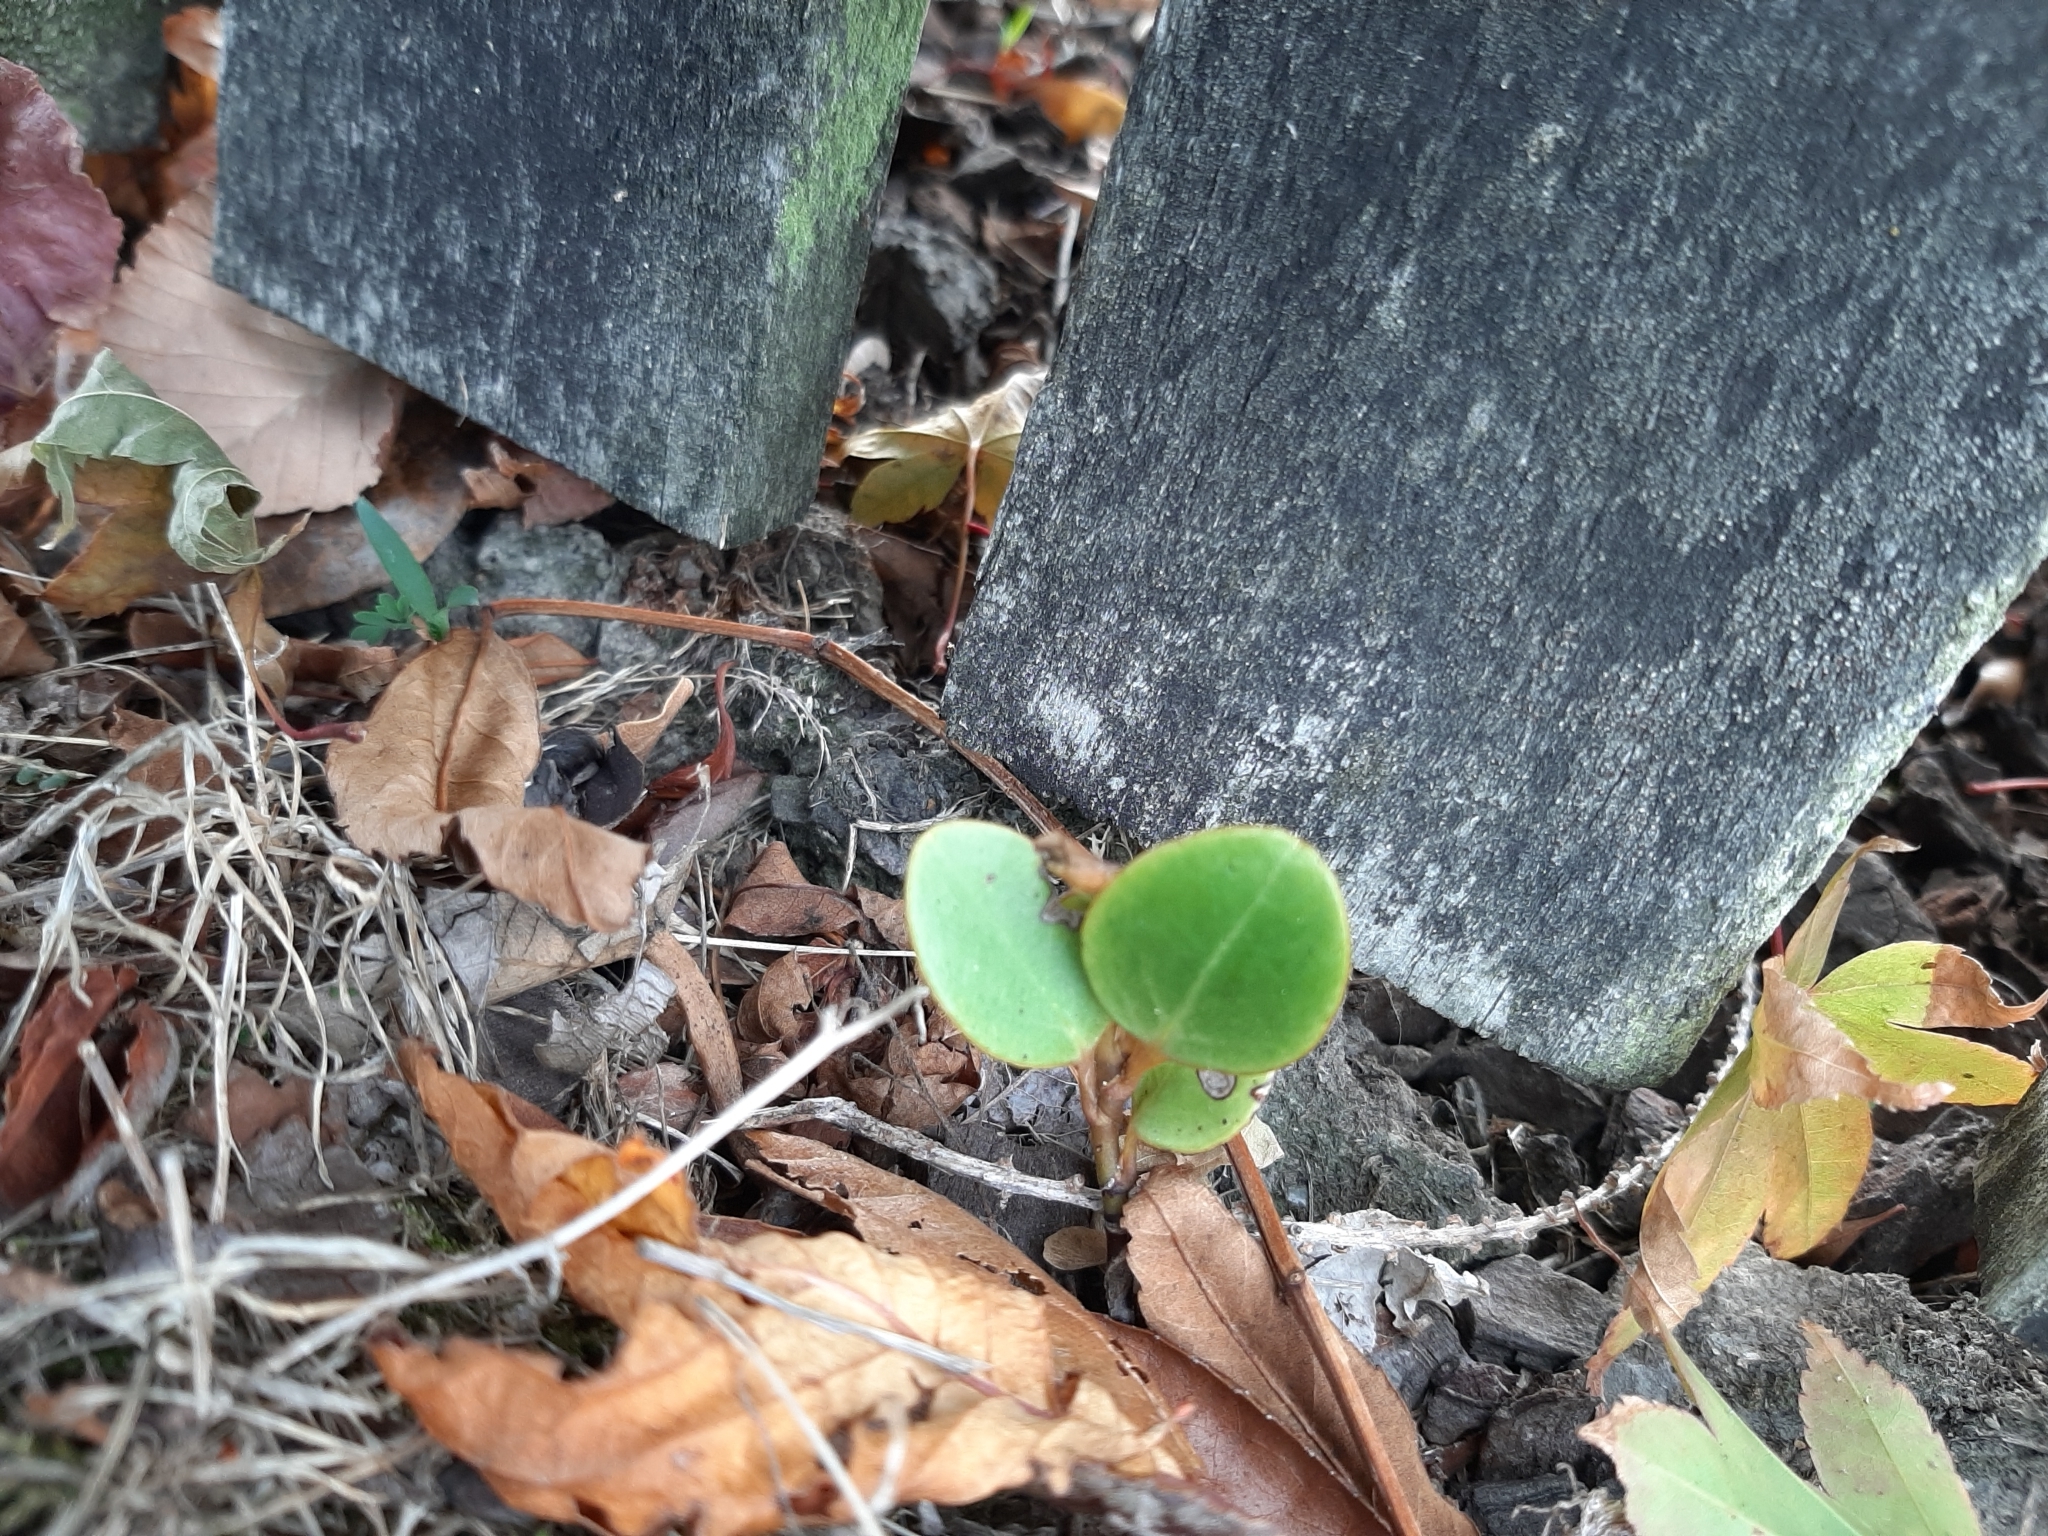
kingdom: Plantae
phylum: Tracheophyta
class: Magnoliopsida
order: Apiales
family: Griseliniaceae
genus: Griselinia
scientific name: Griselinia littoralis
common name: New zealand broadleaf
